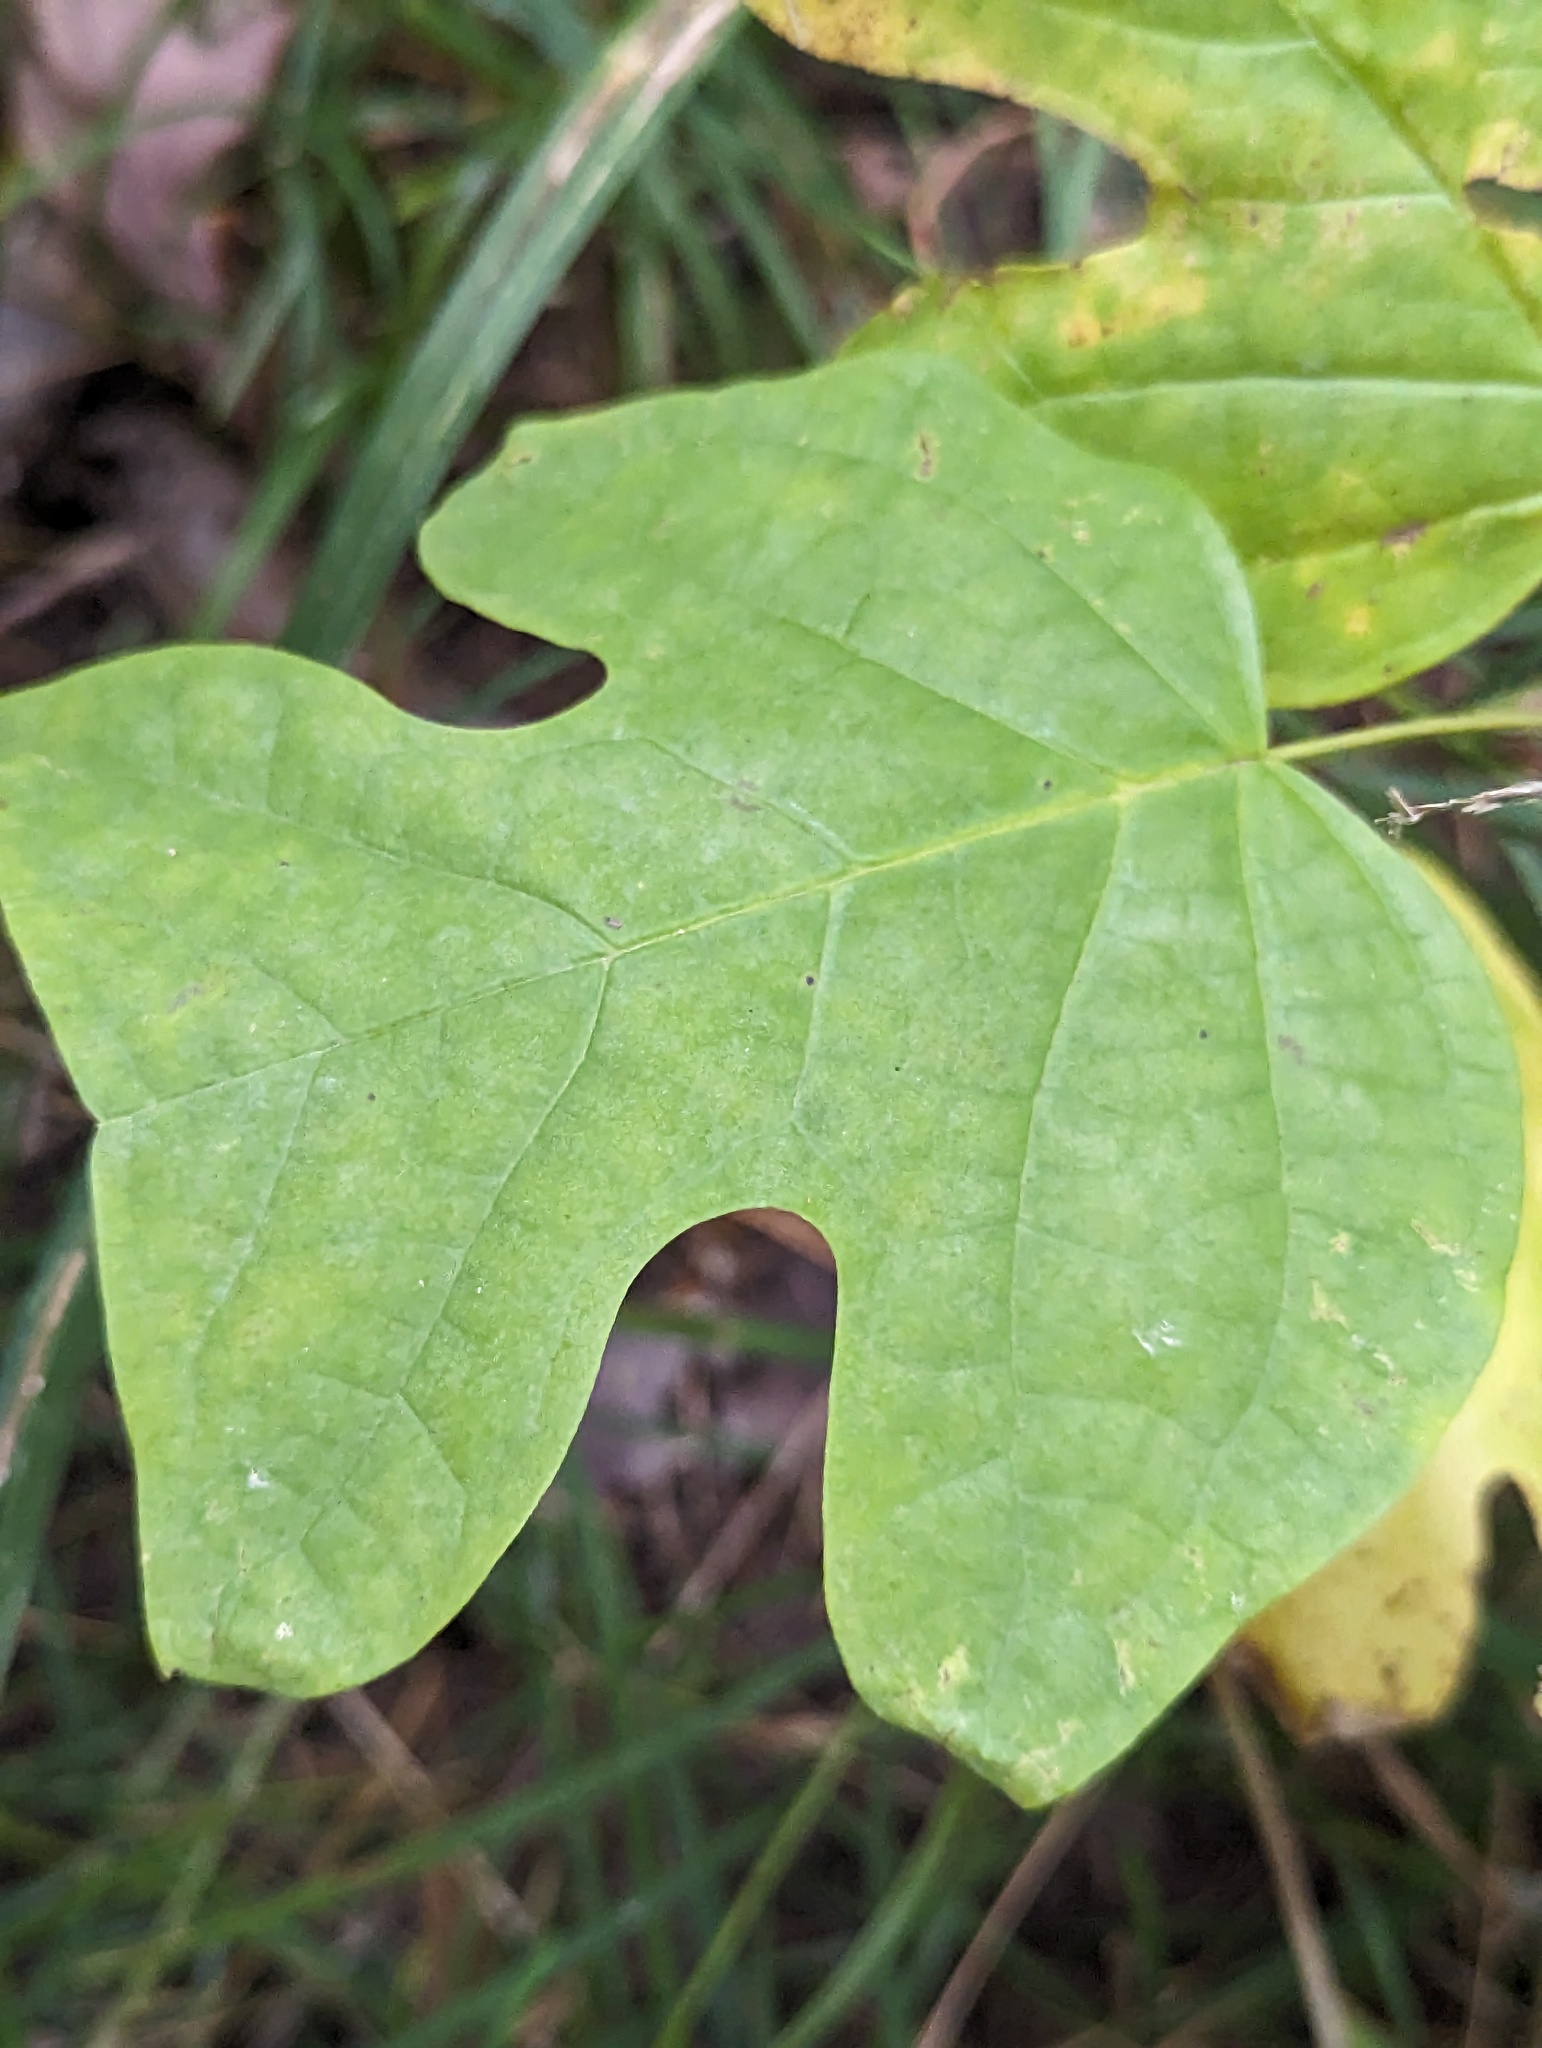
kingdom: Plantae
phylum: Tracheophyta
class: Magnoliopsida
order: Magnoliales
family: Magnoliaceae
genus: Liriodendron
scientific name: Liriodendron tulipifera
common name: Tulip tree
